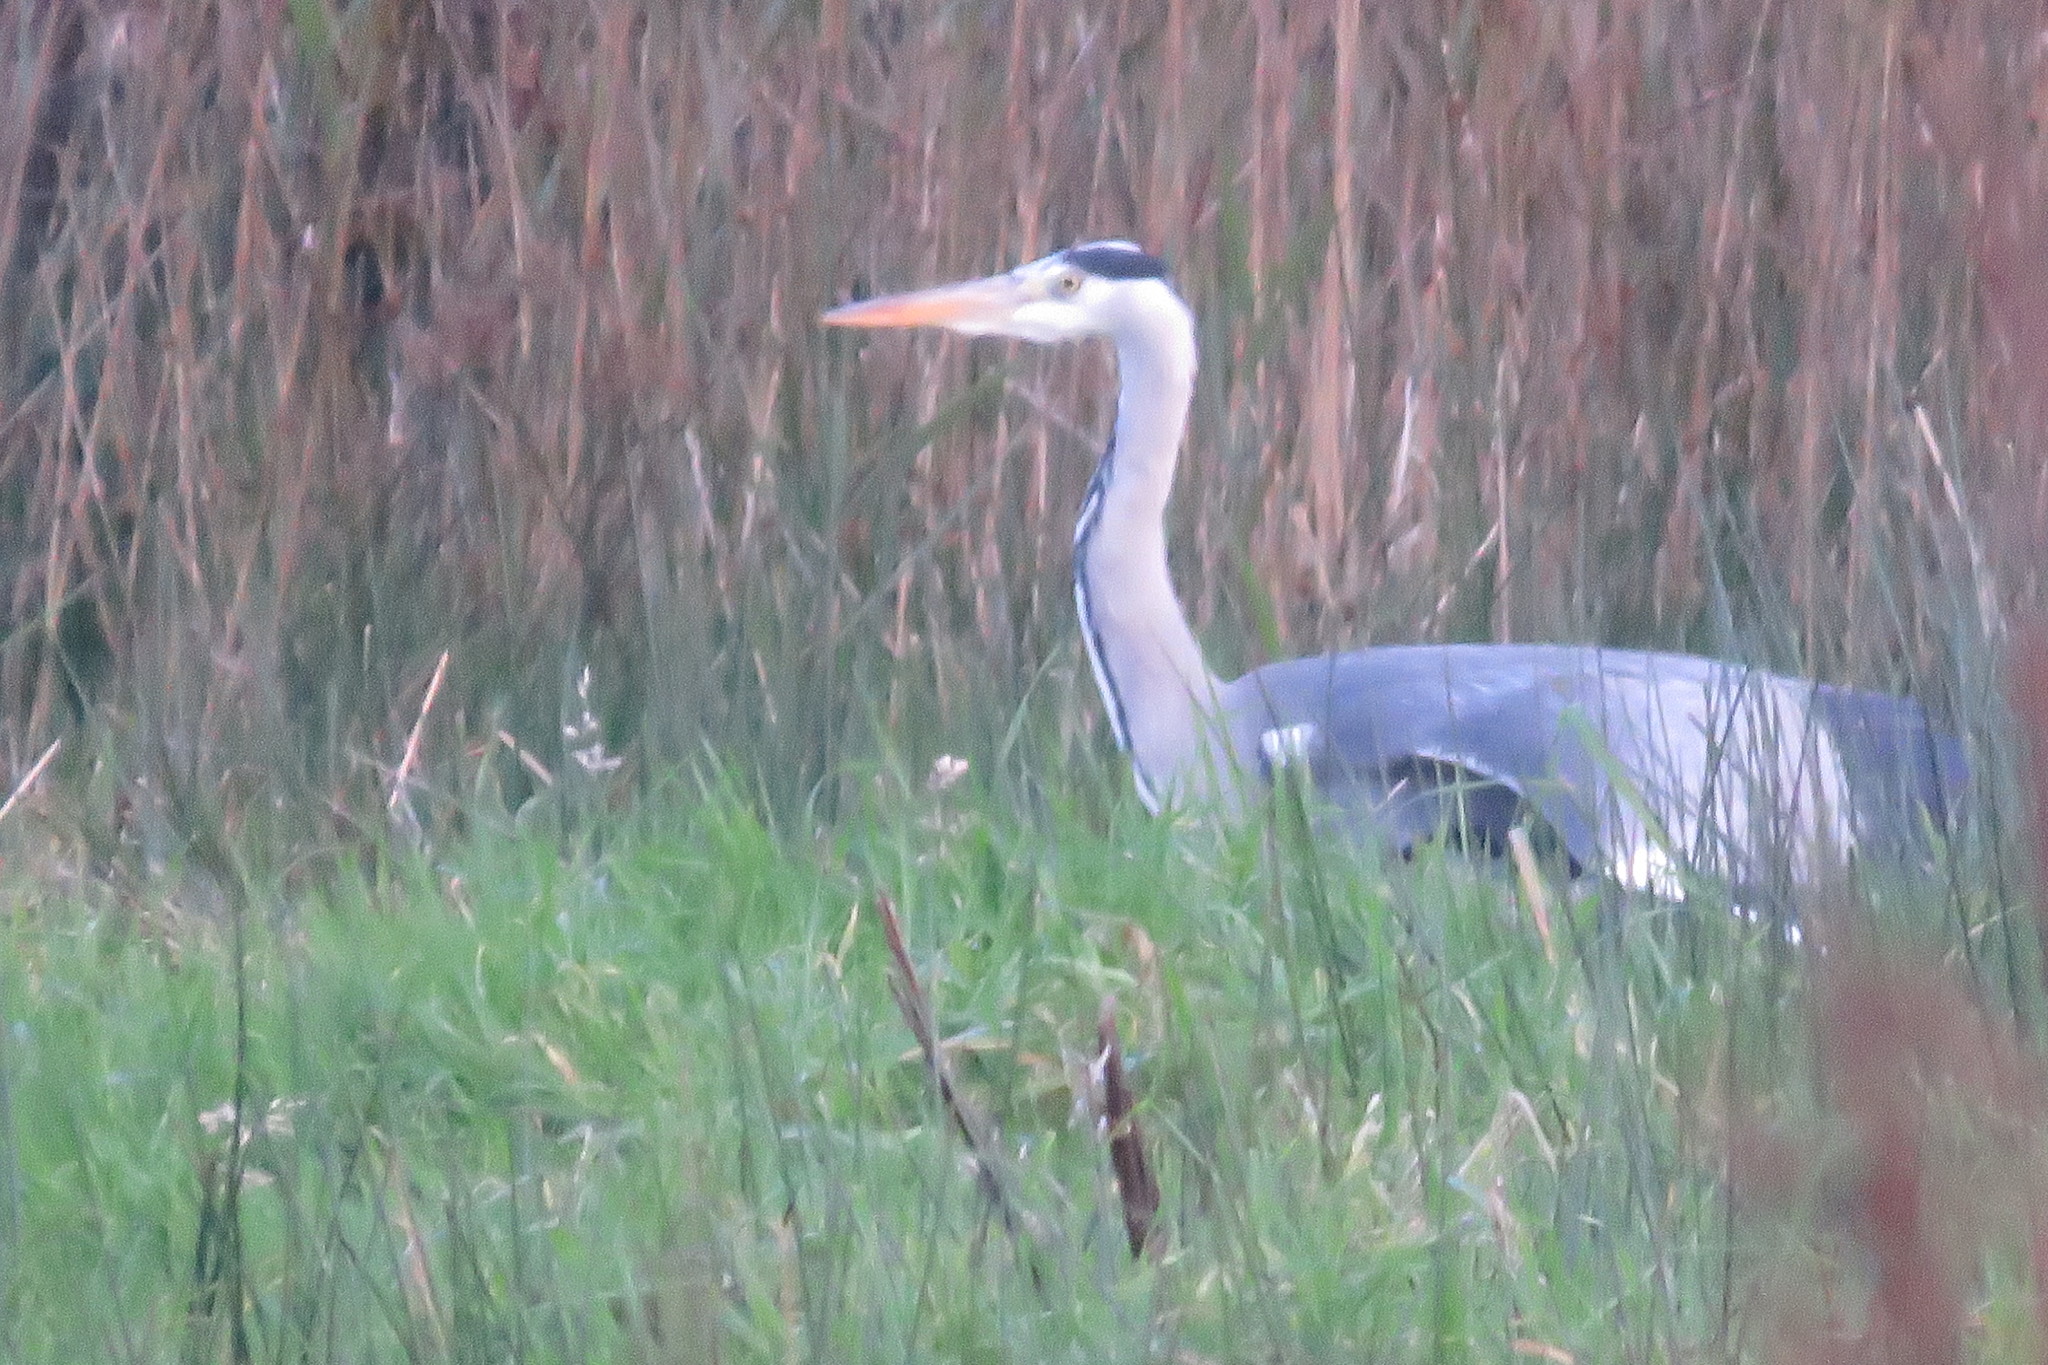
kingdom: Animalia
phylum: Chordata
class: Aves
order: Pelecaniformes
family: Ardeidae
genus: Ardea
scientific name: Ardea cinerea
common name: Grey heron
